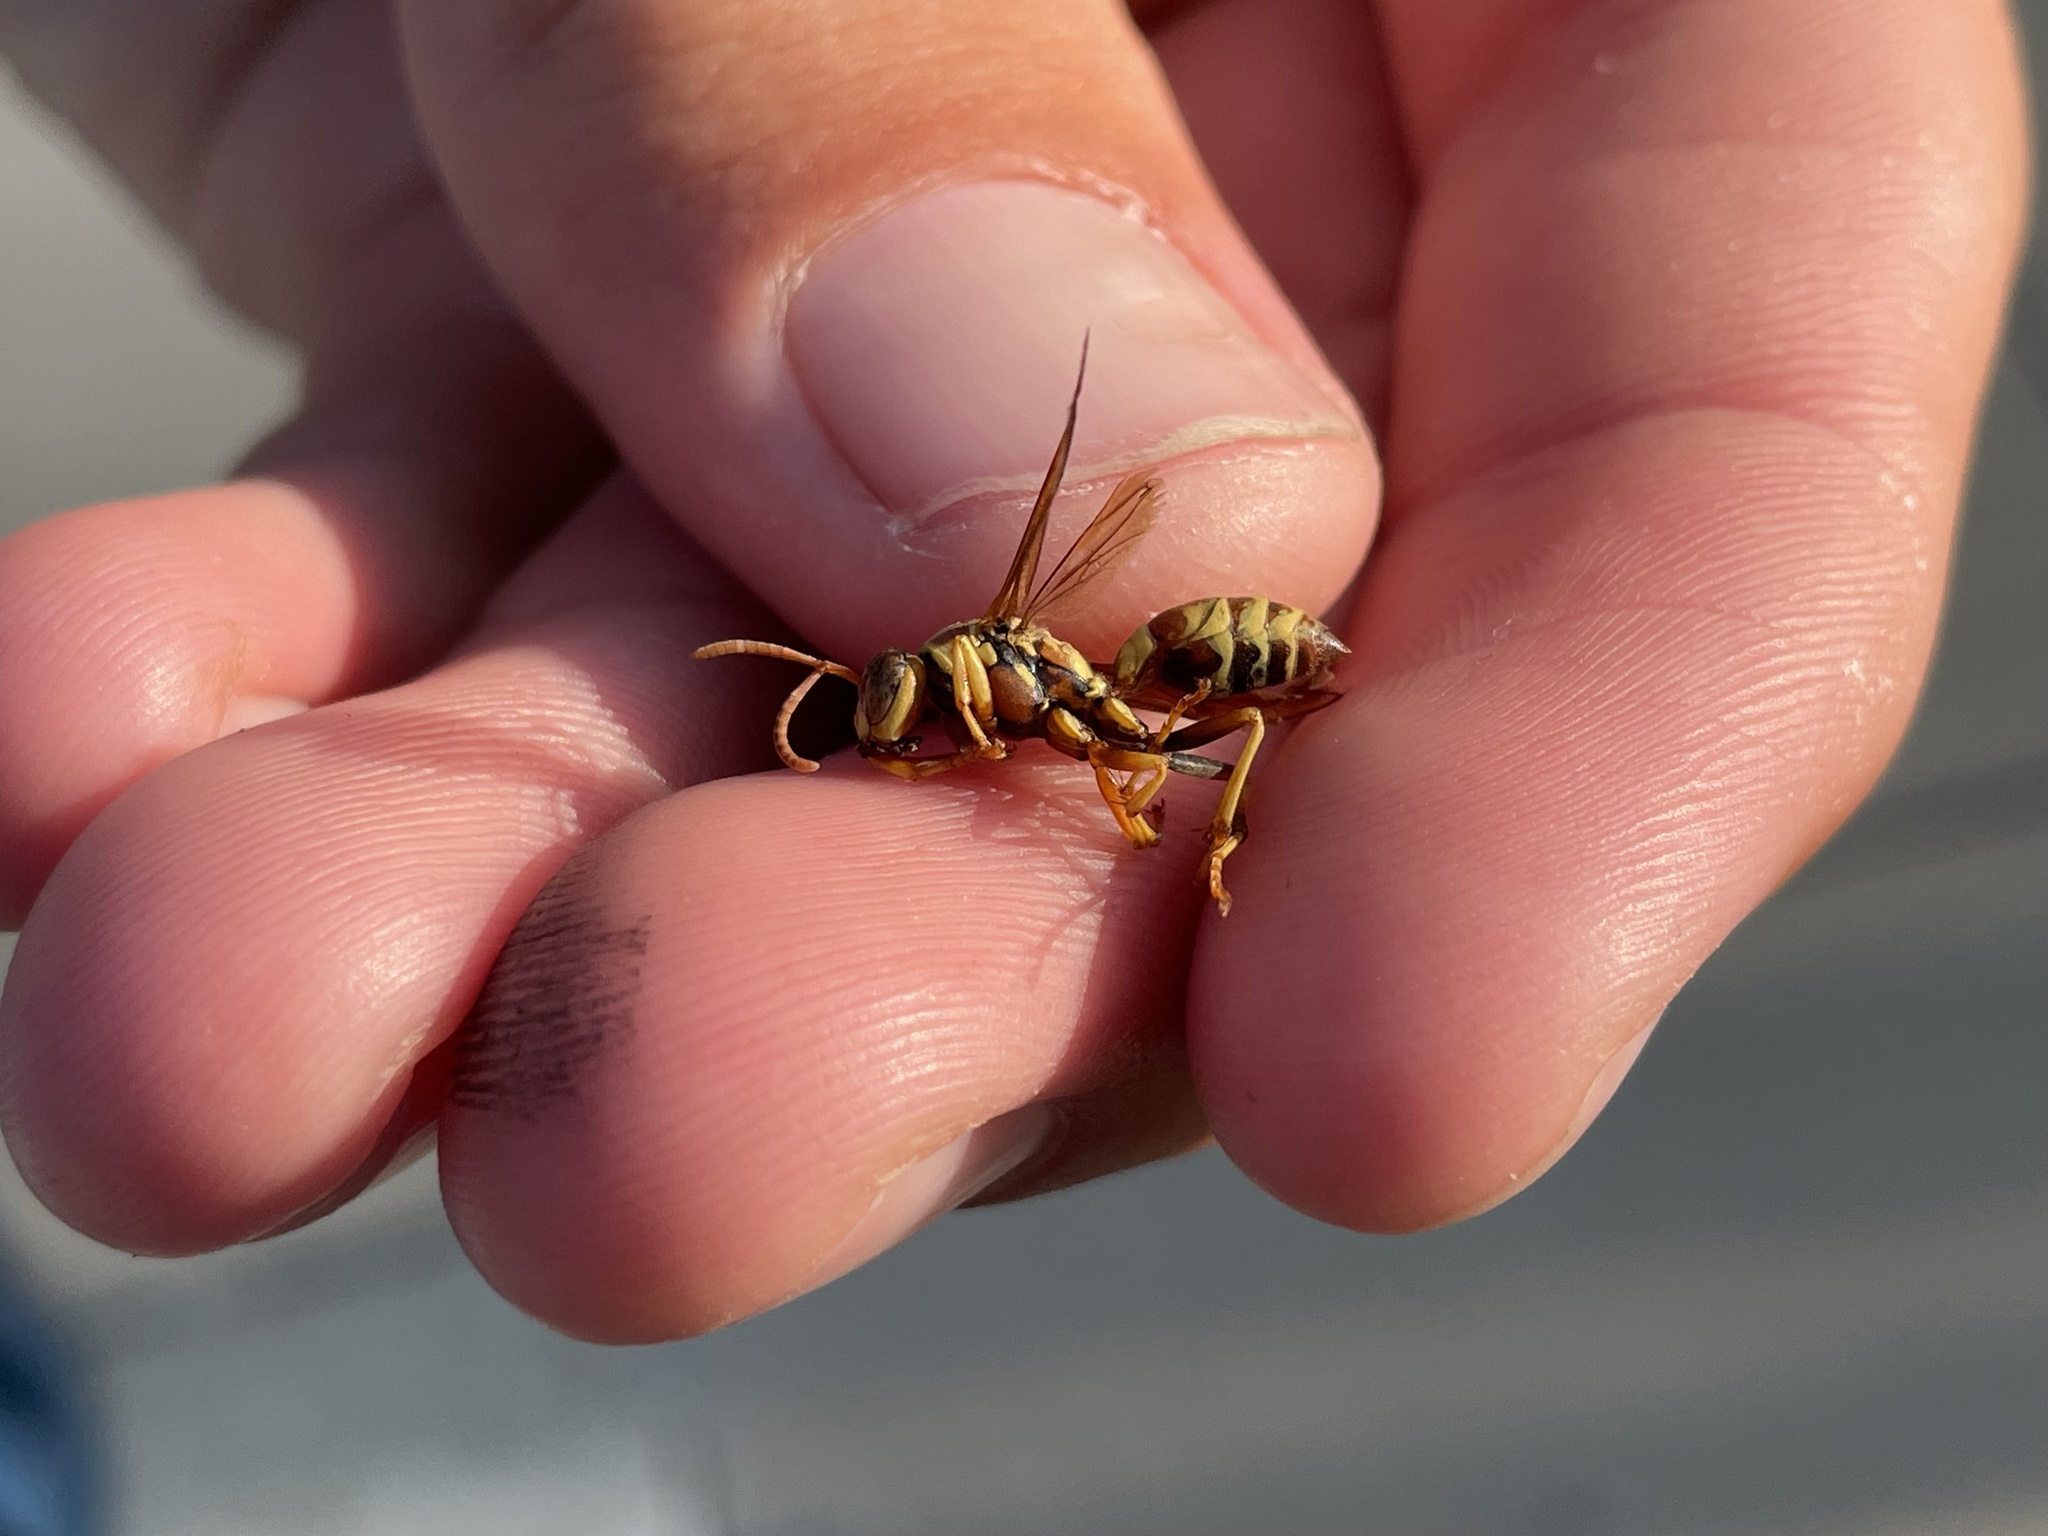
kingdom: Animalia
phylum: Arthropoda
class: Insecta
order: Hymenoptera
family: Eumenidae
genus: Polistes
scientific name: Polistes dorsalis
